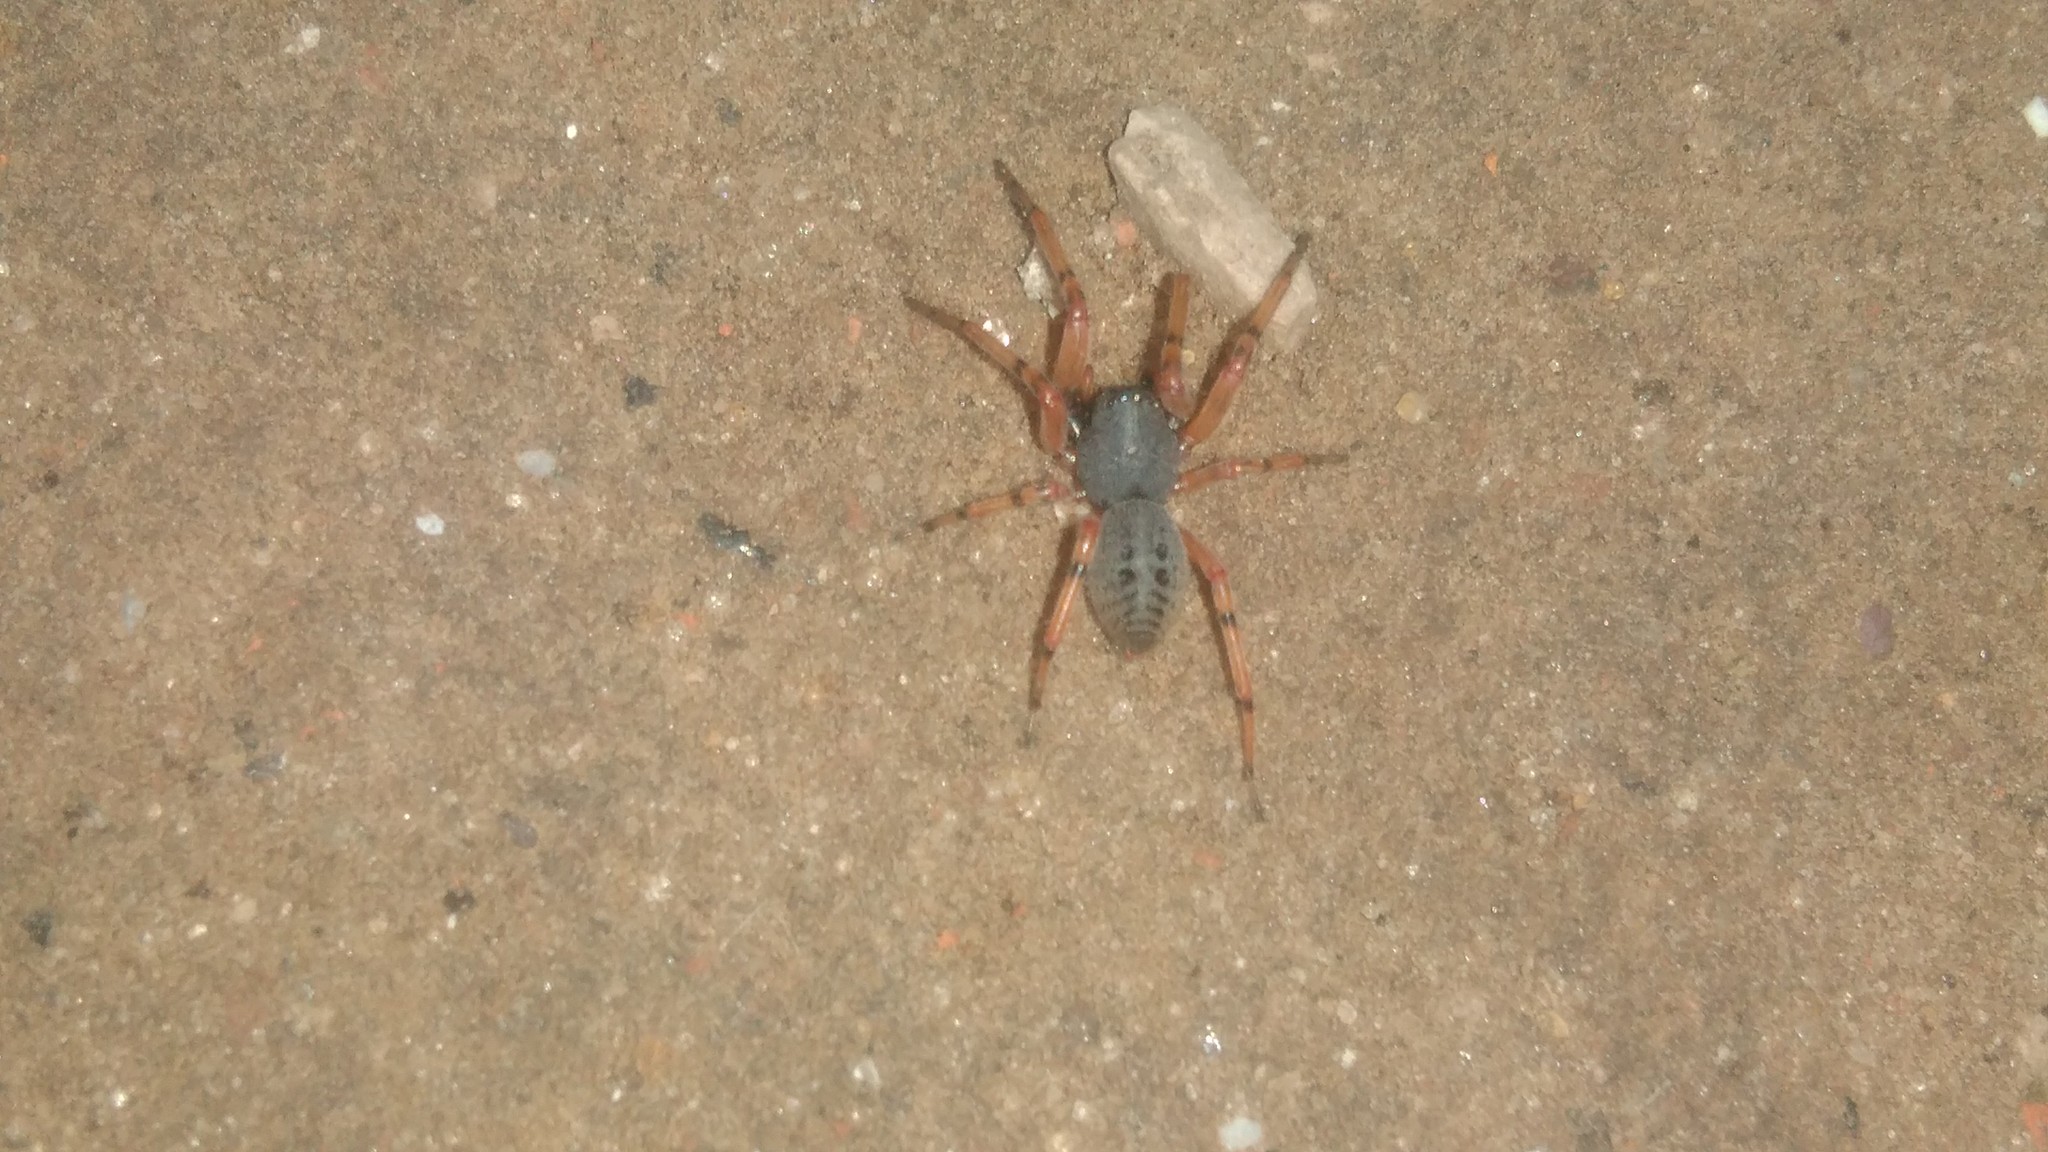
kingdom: Animalia
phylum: Arthropoda
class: Arachnida
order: Araneae
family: Trachelidae
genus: Trachelopachys
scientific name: Trachelopachys
